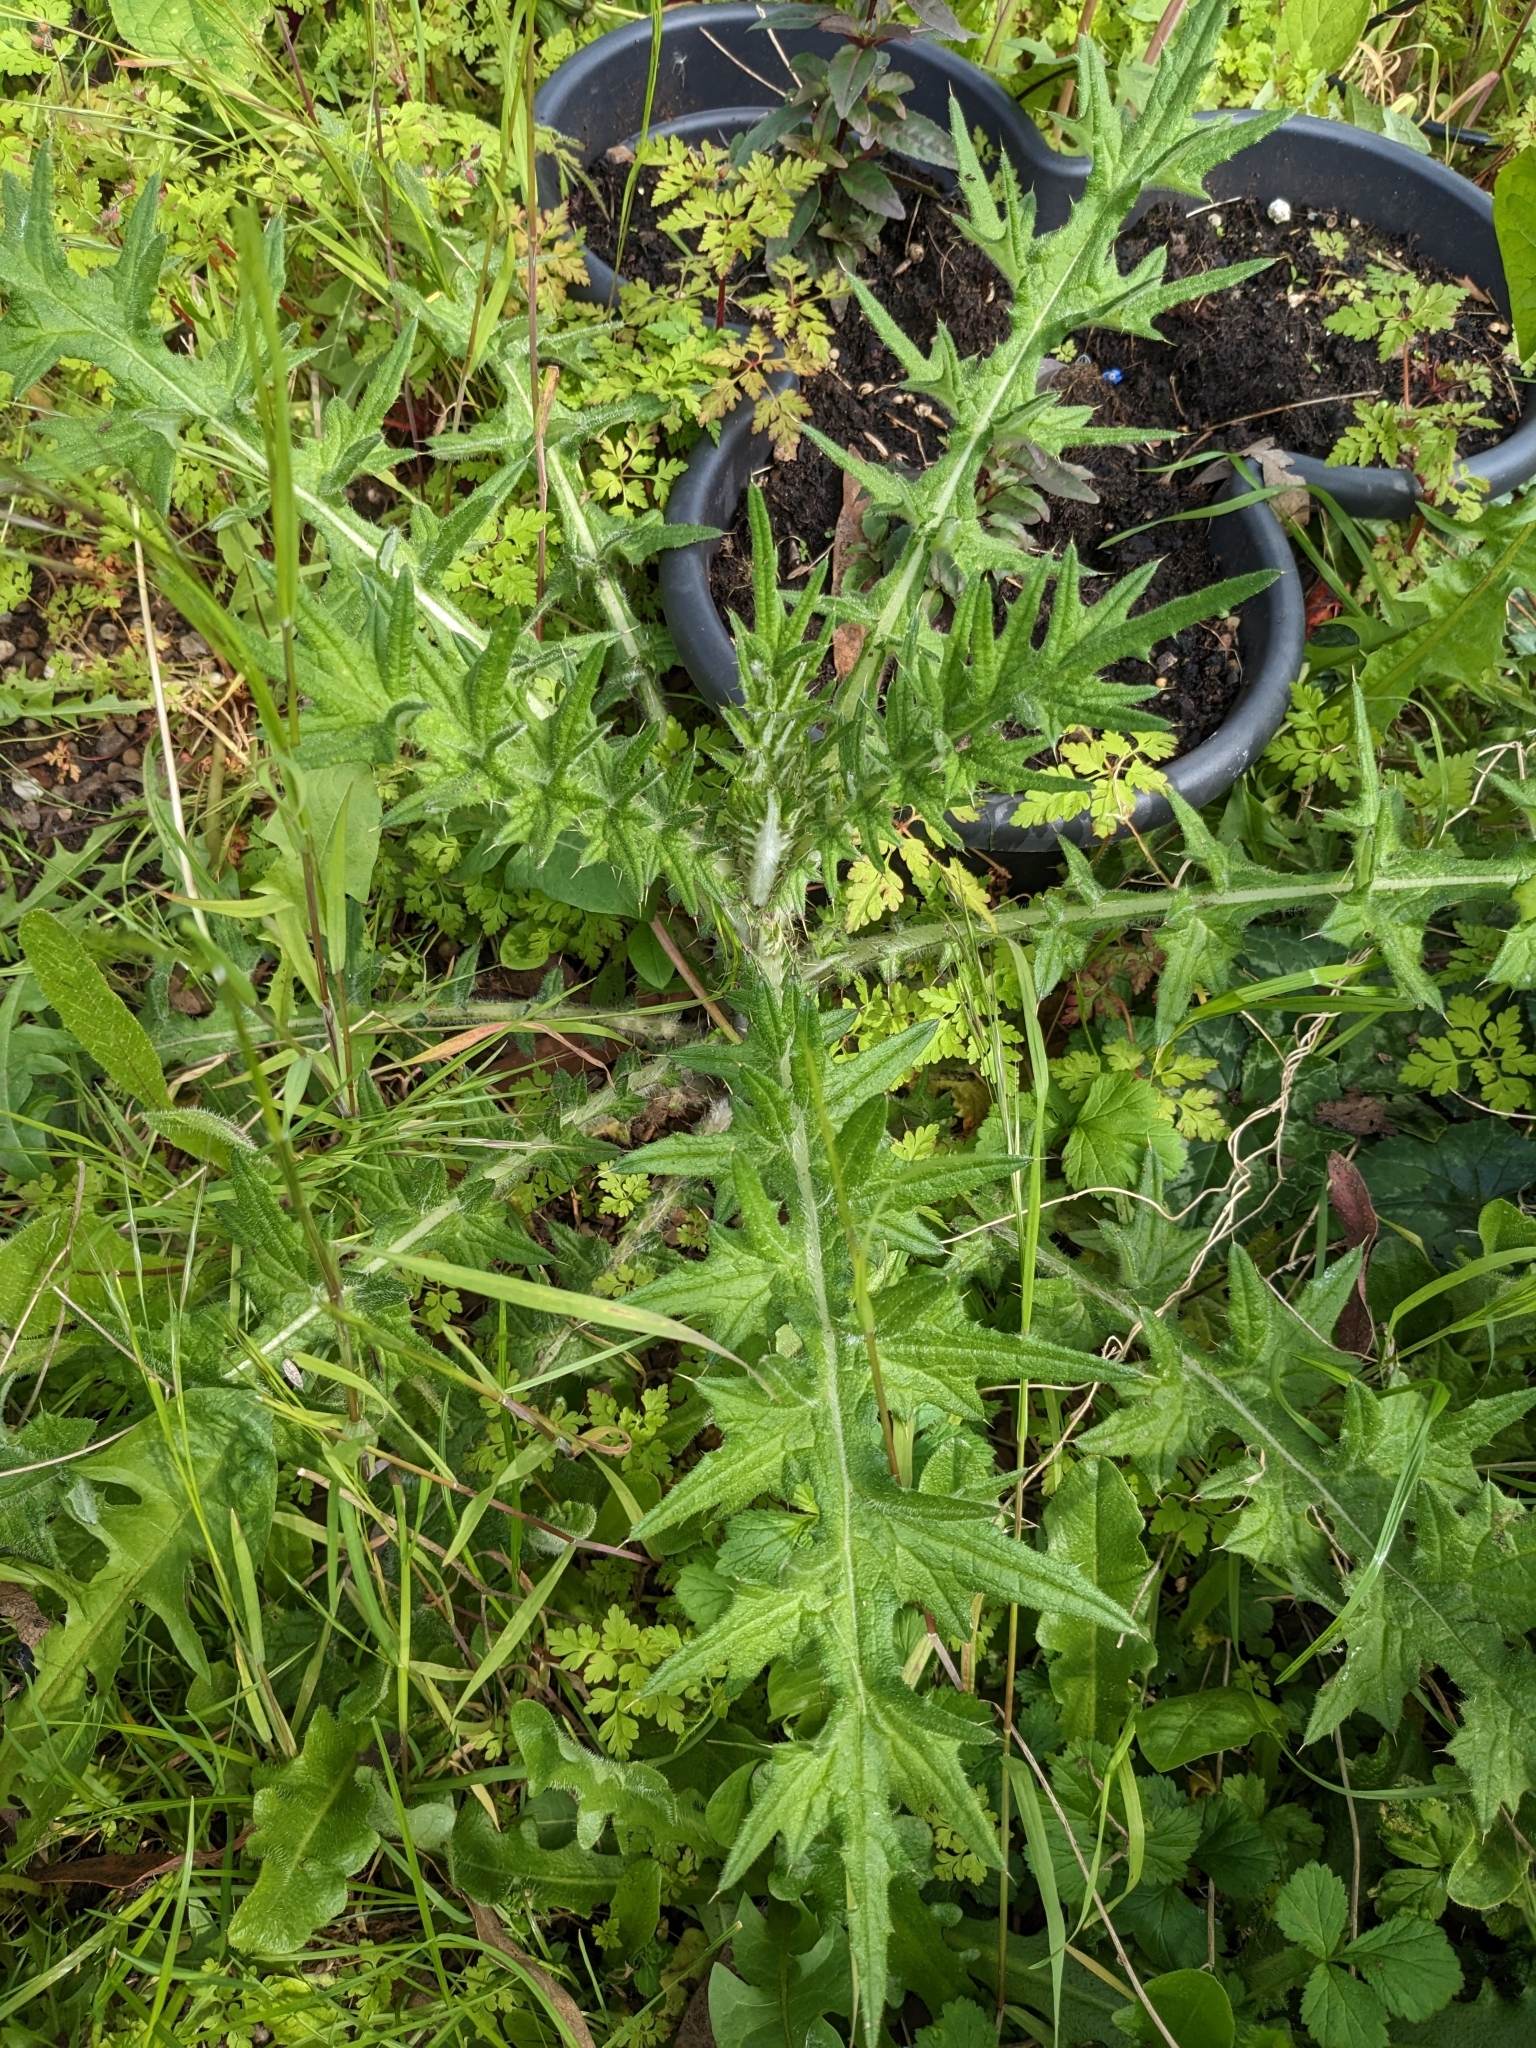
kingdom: Plantae
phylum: Tracheophyta
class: Magnoliopsida
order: Asterales
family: Asteraceae
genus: Cirsium
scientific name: Cirsium vulgare
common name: Bull thistle
